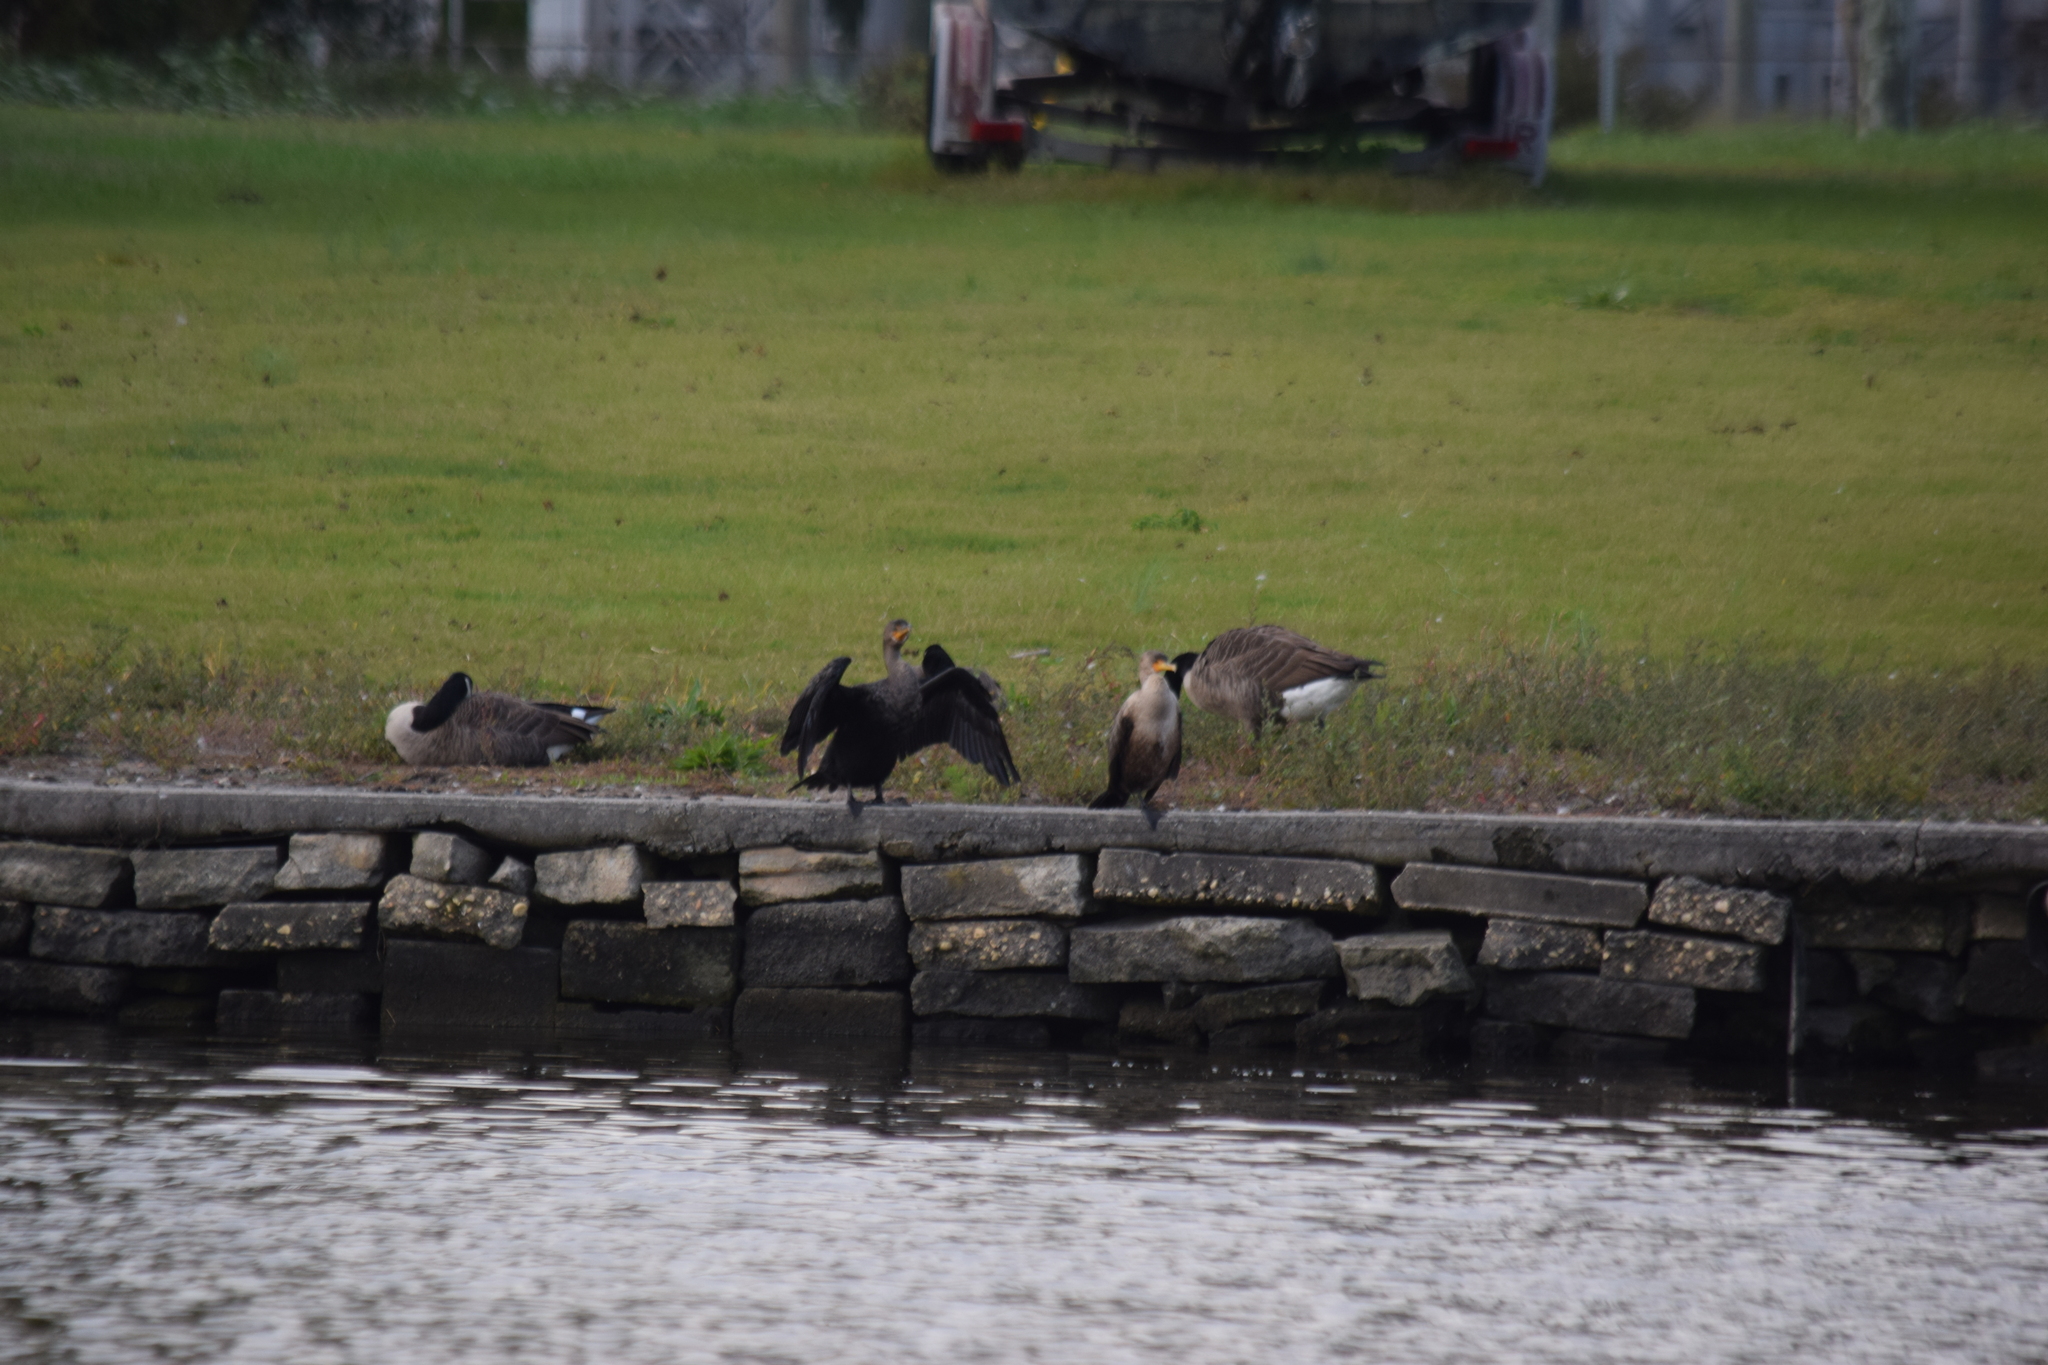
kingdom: Animalia
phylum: Chordata
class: Aves
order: Suliformes
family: Phalacrocoracidae
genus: Phalacrocorax
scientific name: Phalacrocorax auritus
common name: Double-crested cormorant
